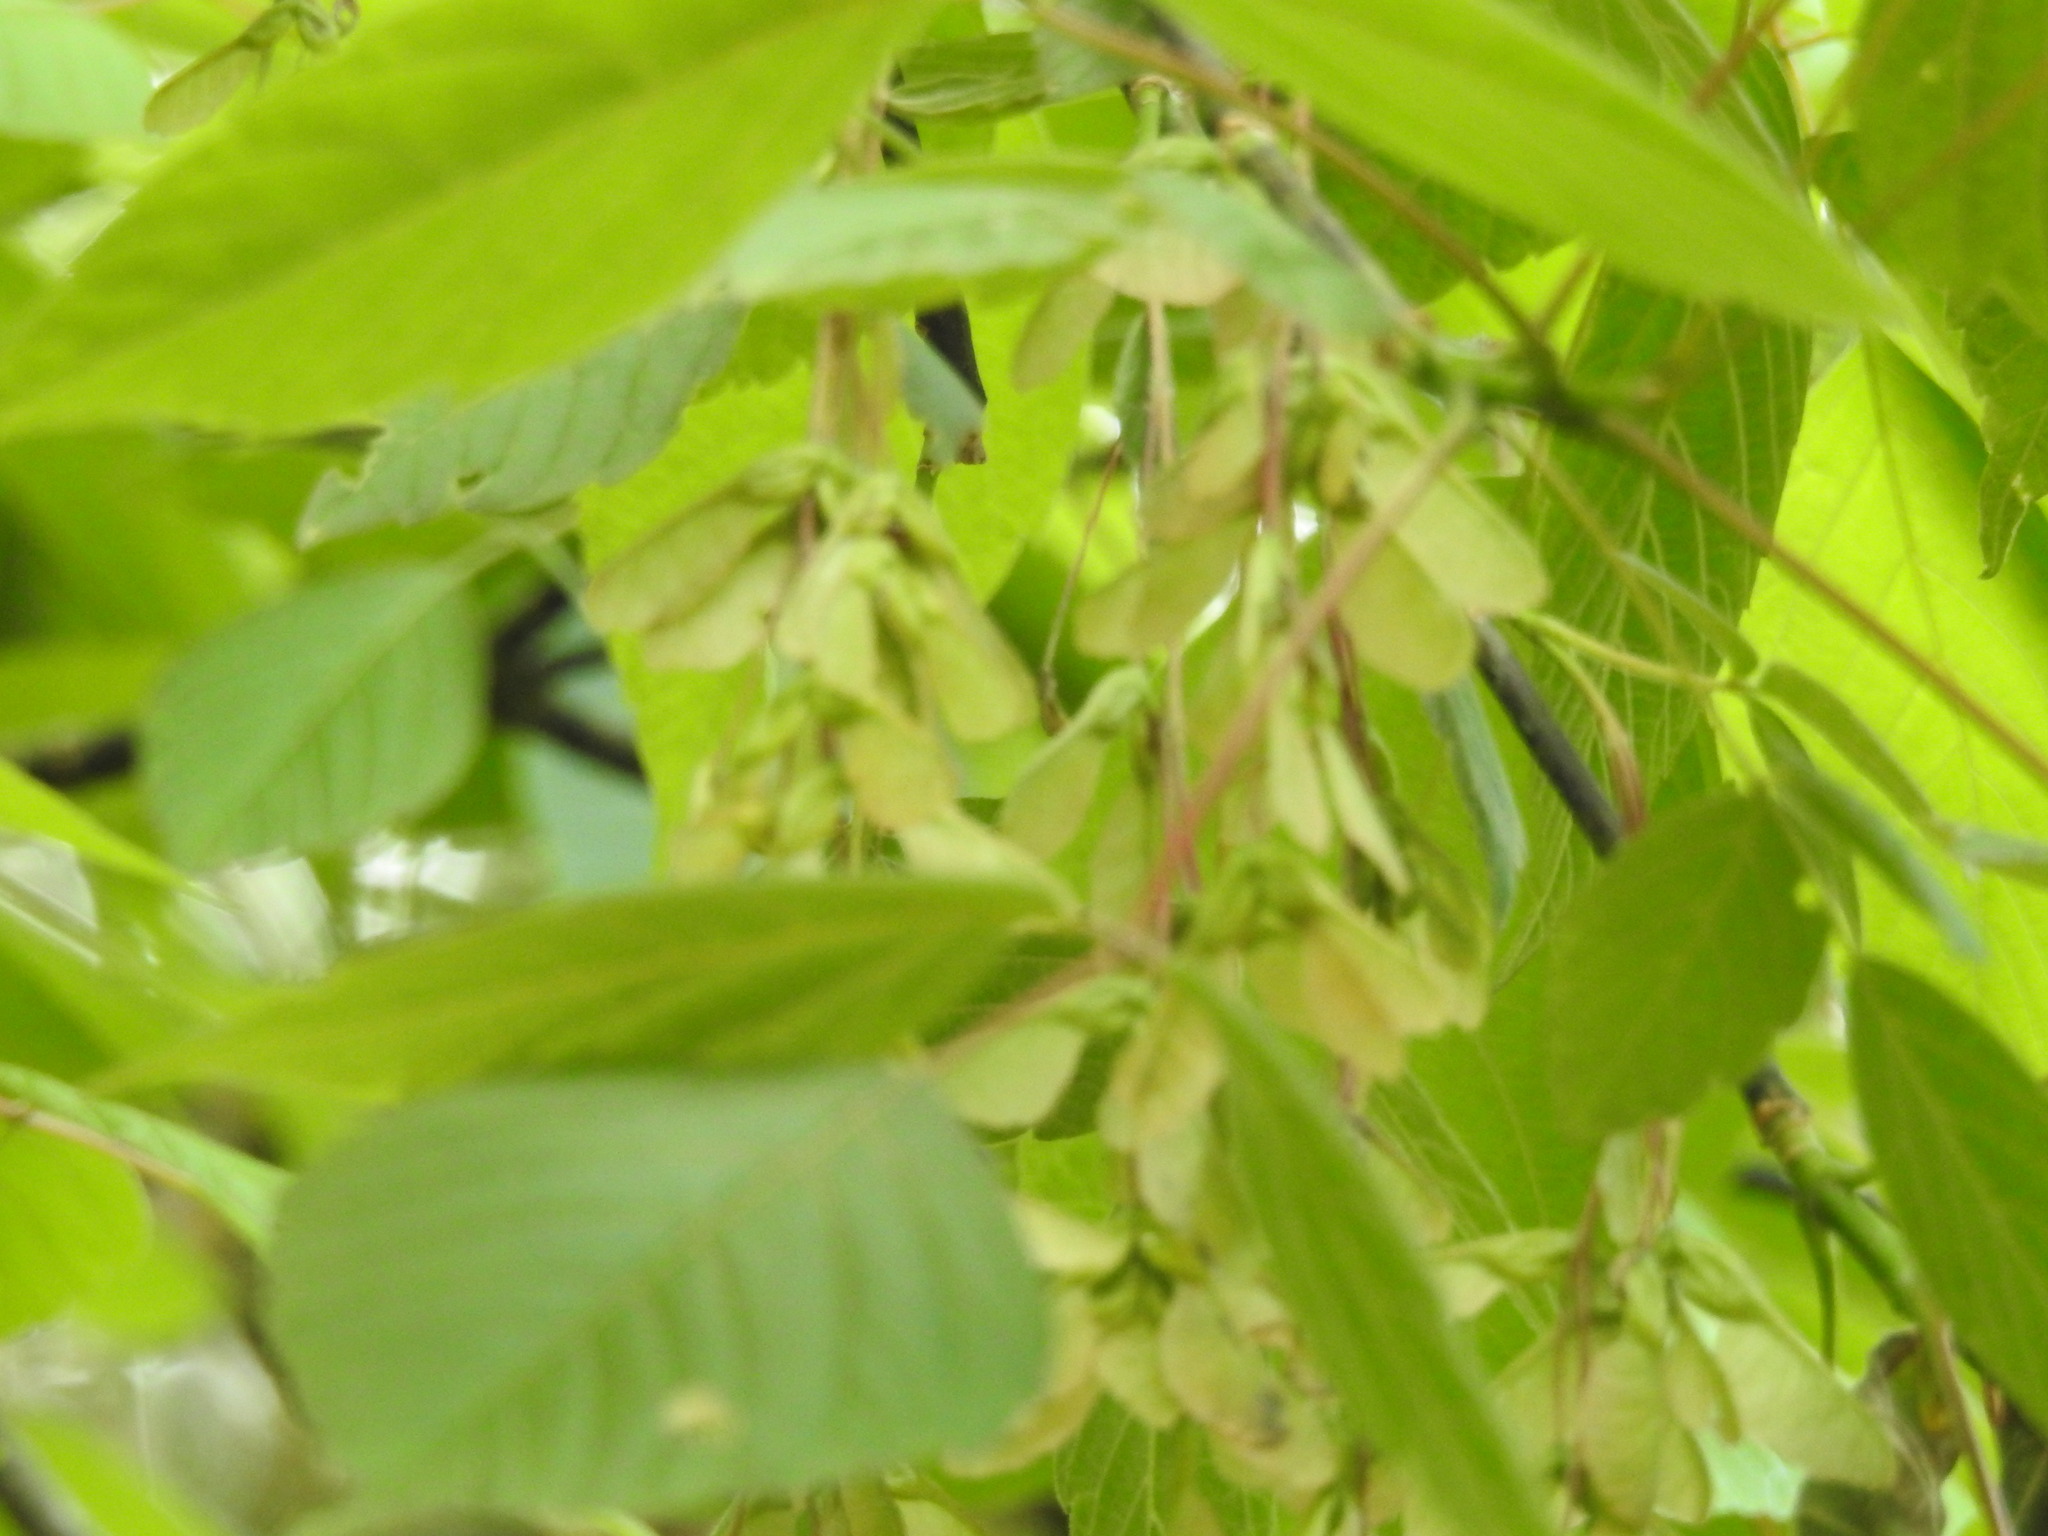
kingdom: Plantae
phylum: Tracheophyta
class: Magnoliopsida
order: Sapindales
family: Sapindaceae
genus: Acer
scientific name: Acer negundo
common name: Ashleaf maple
